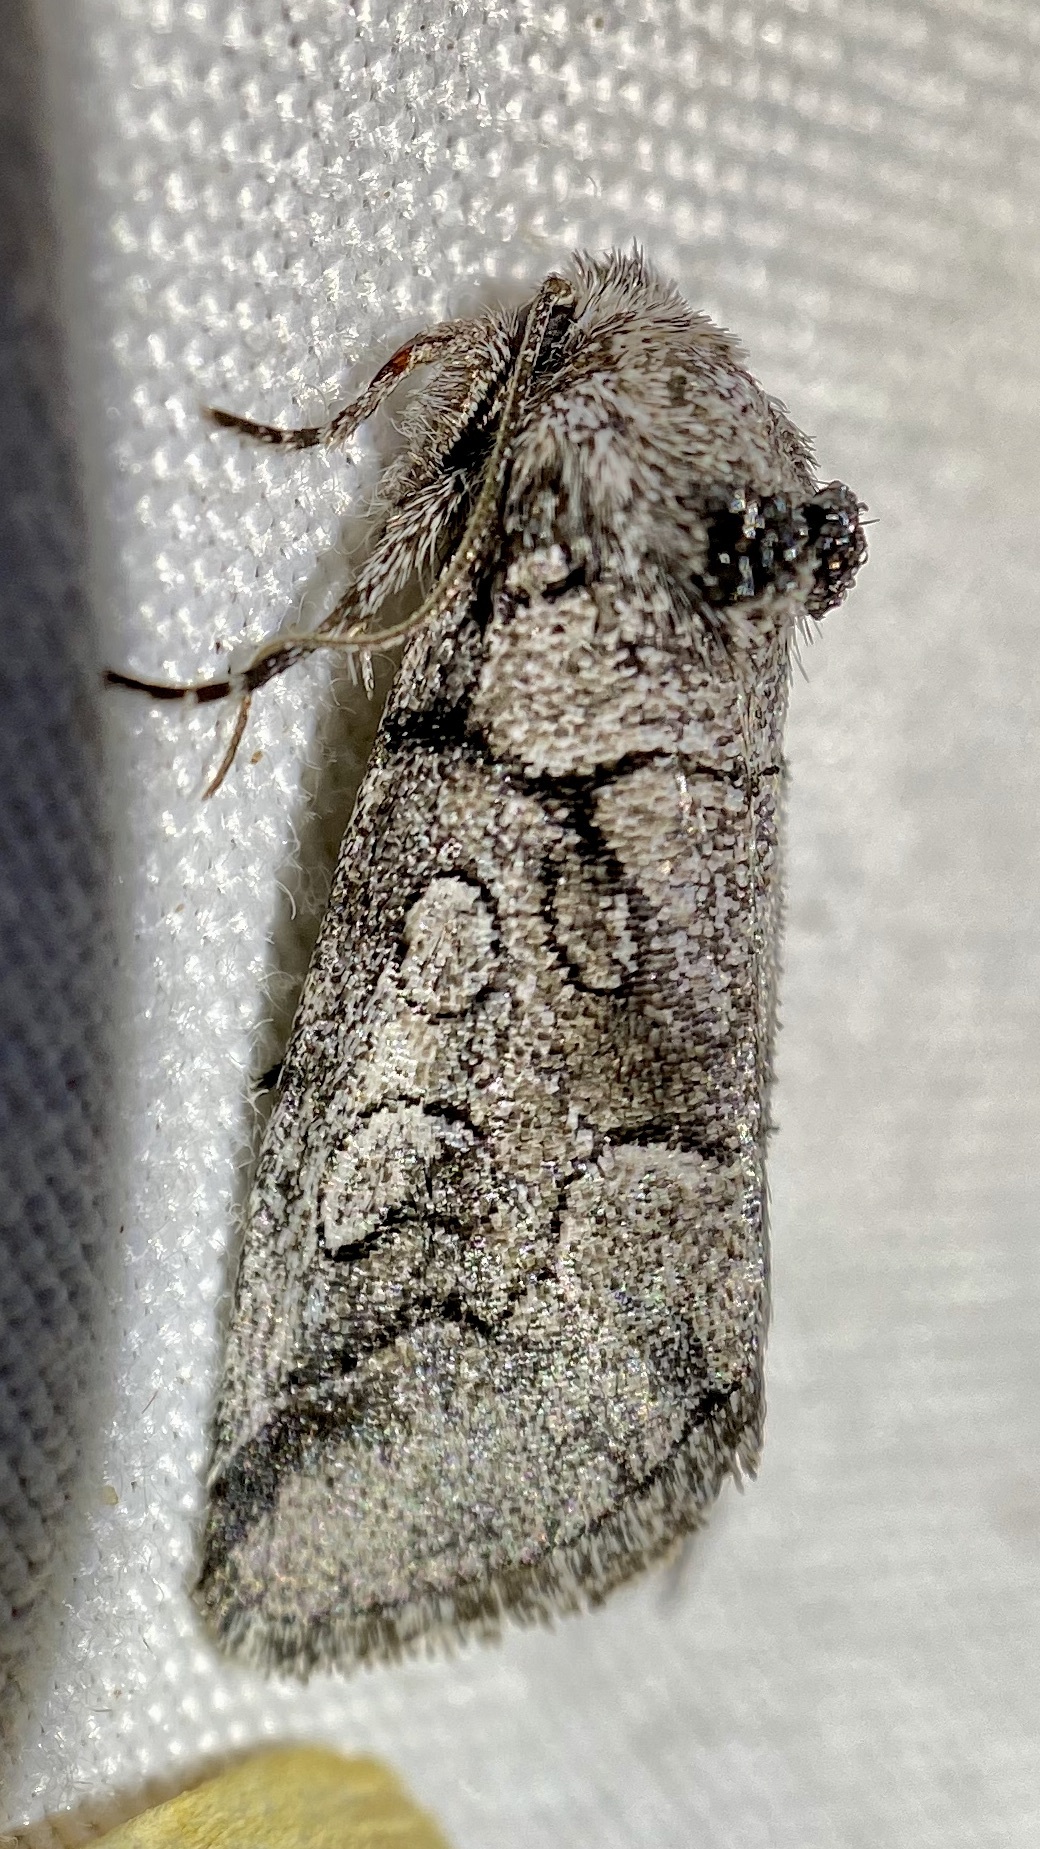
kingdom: Animalia
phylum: Arthropoda
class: Insecta
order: Lepidoptera
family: Noctuidae
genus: Oxycnemis
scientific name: Oxycnemis advena
